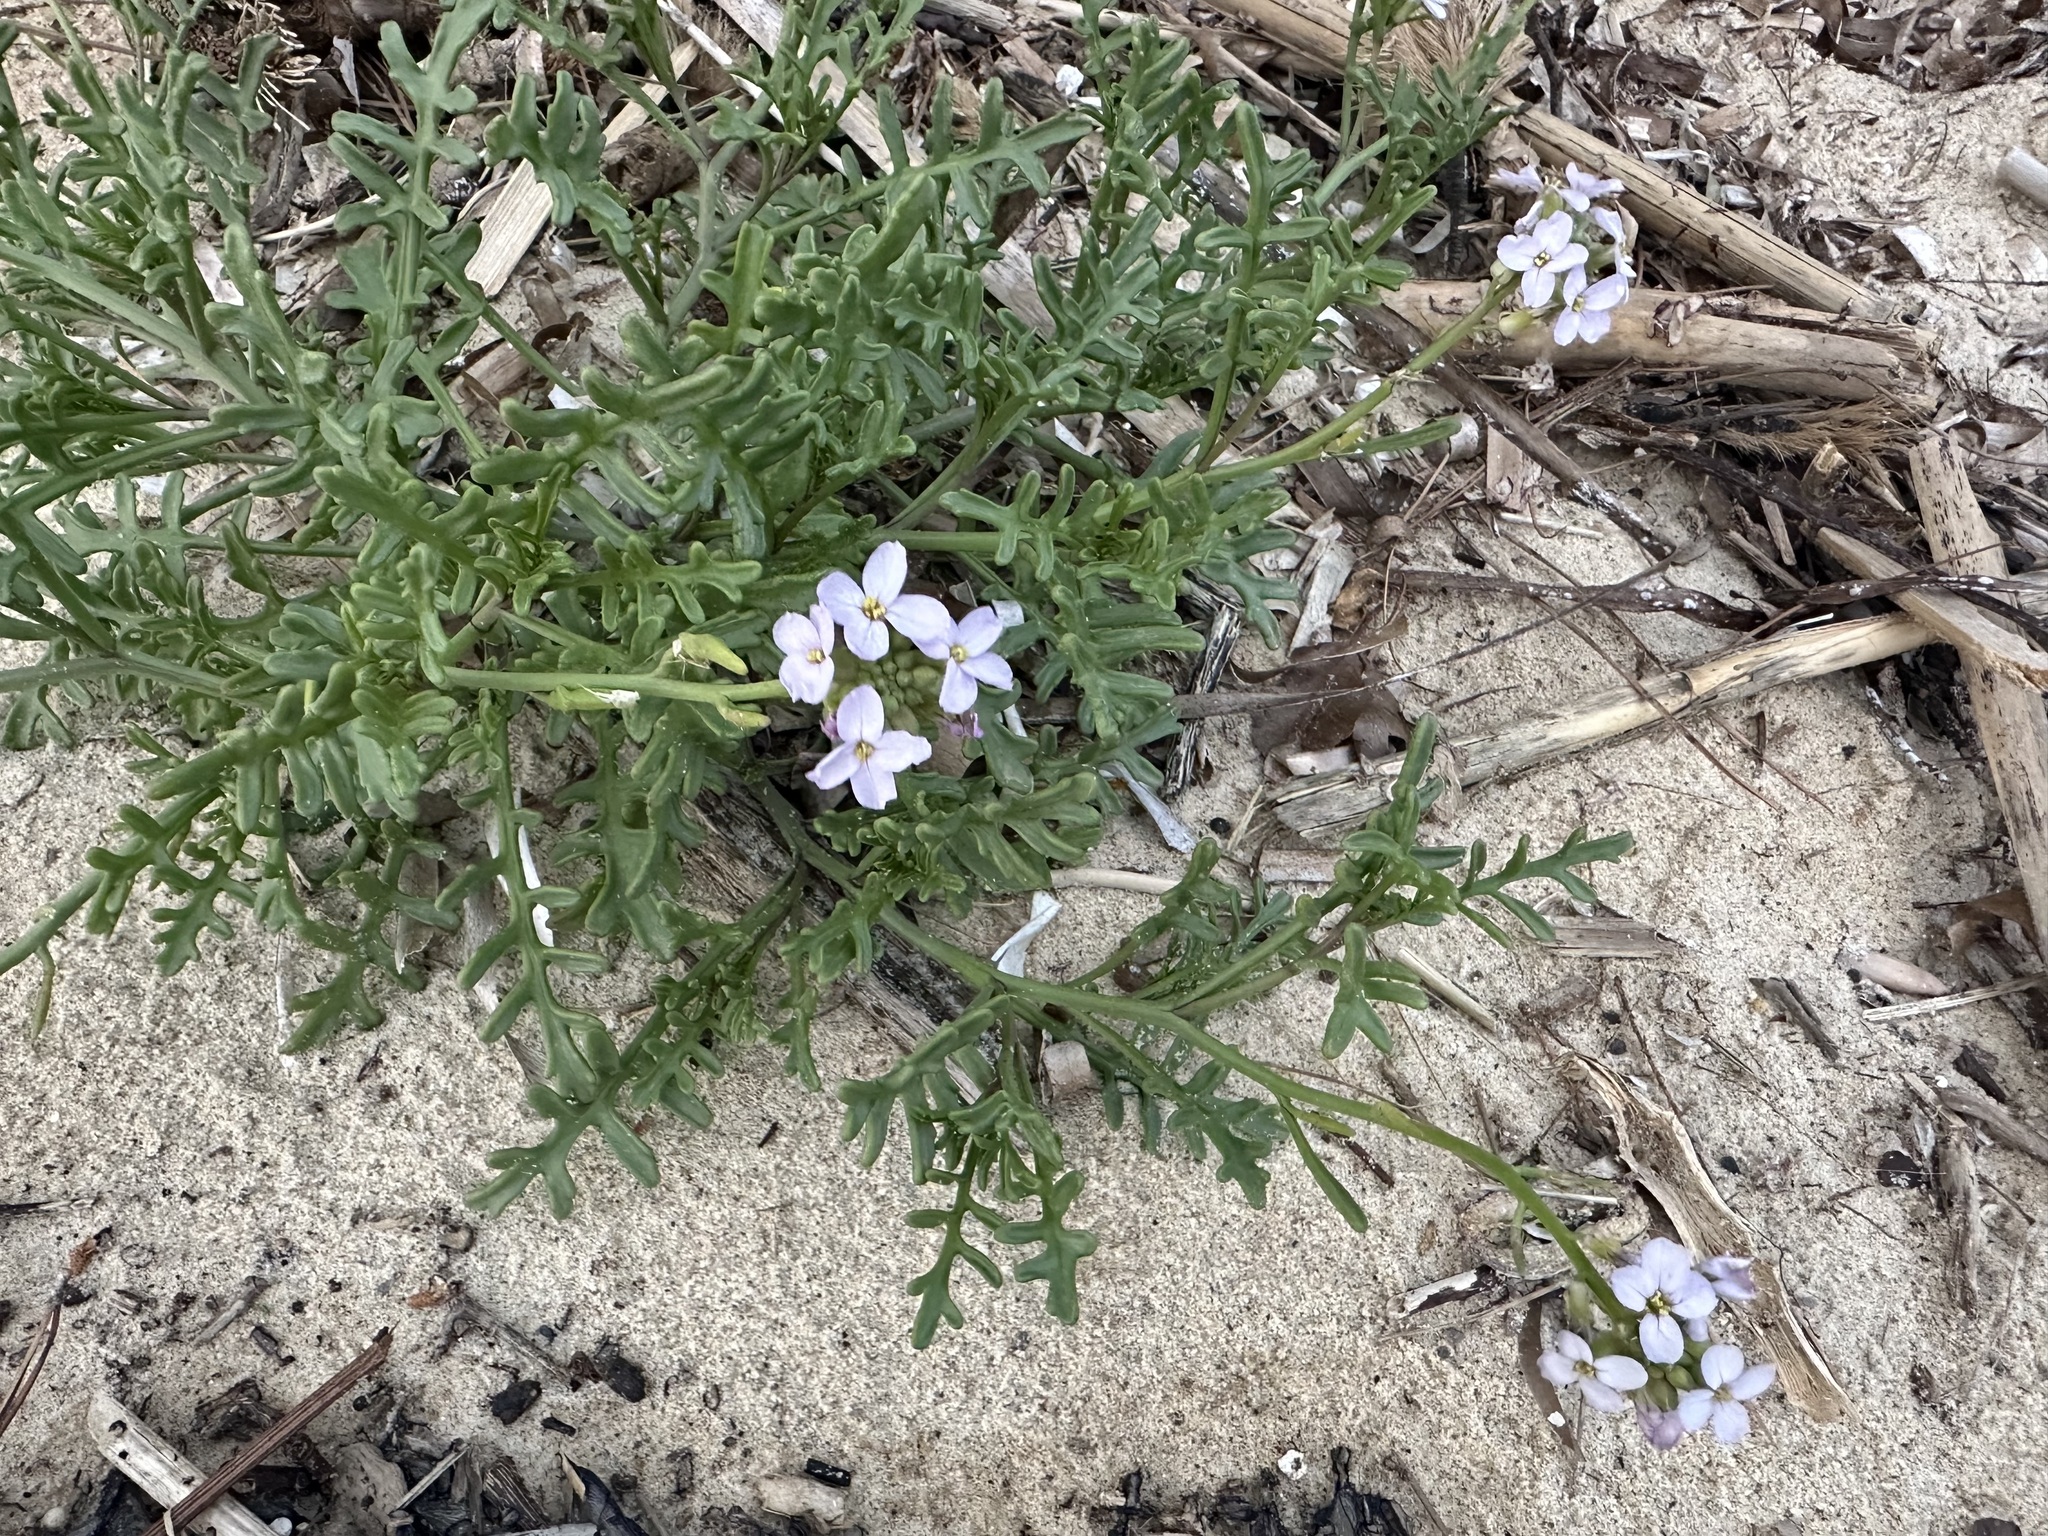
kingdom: Plantae
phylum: Tracheophyta
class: Magnoliopsida
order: Brassicales
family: Brassicaceae
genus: Cakile
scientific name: Cakile maritima
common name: Sea rocket
